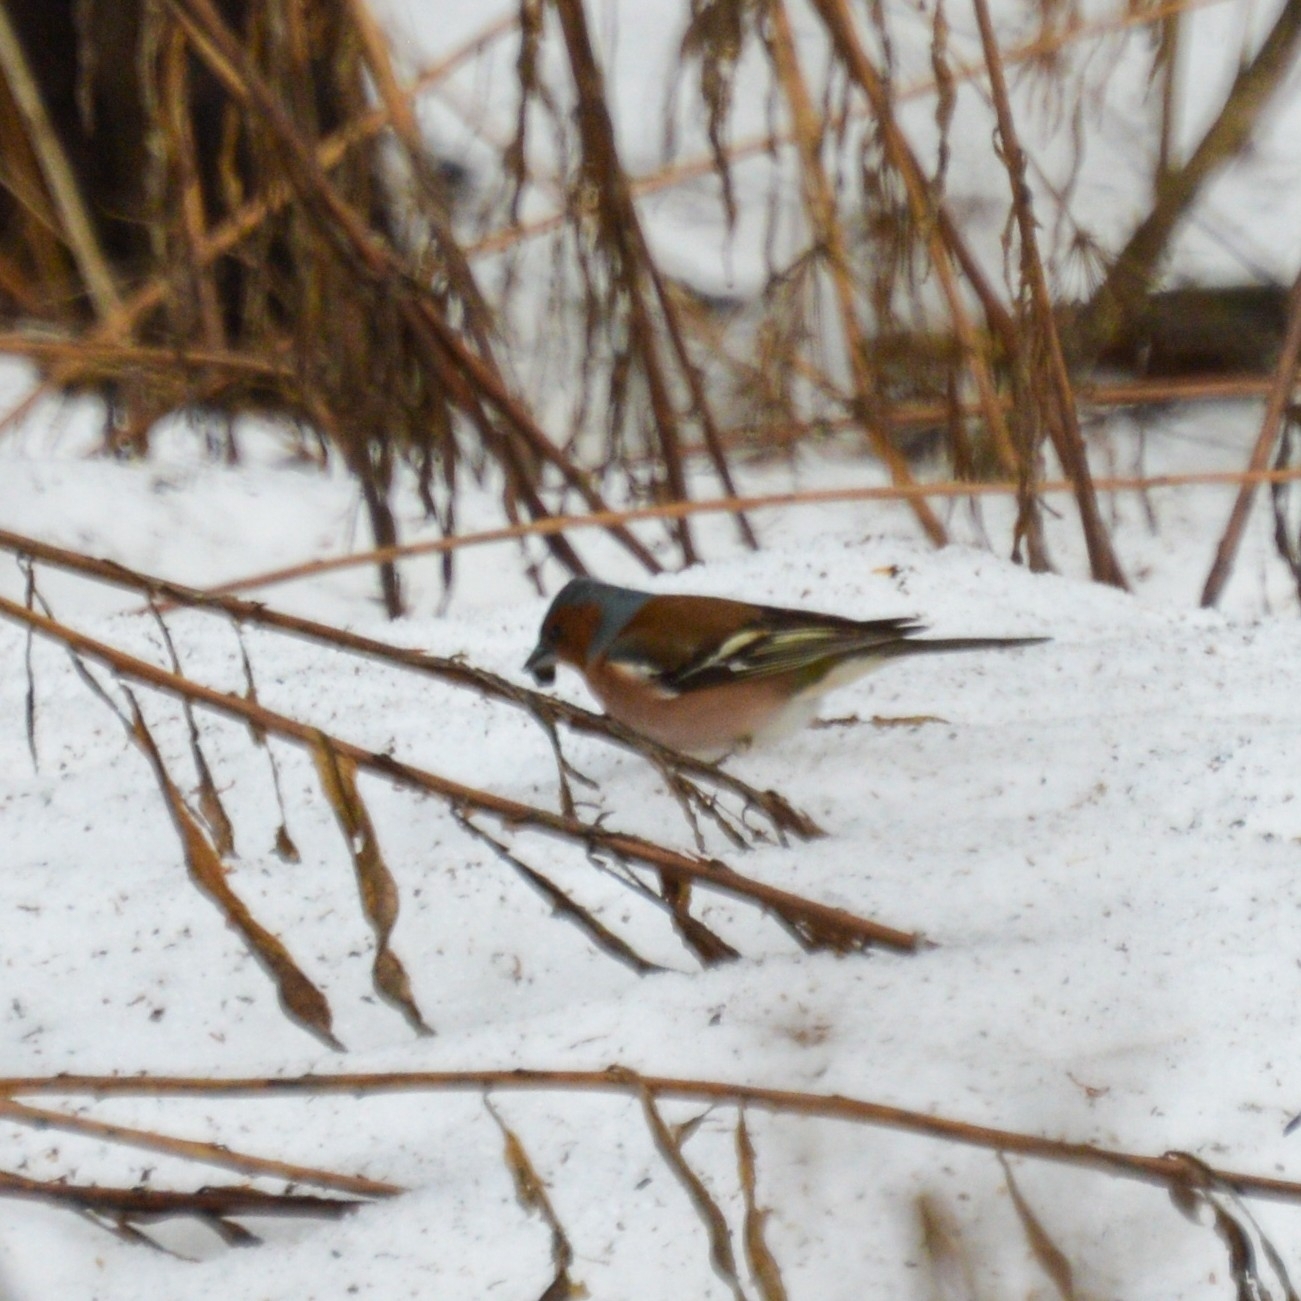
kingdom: Animalia
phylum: Chordata
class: Aves
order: Passeriformes
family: Fringillidae
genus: Fringilla
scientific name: Fringilla coelebs
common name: Common chaffinch
